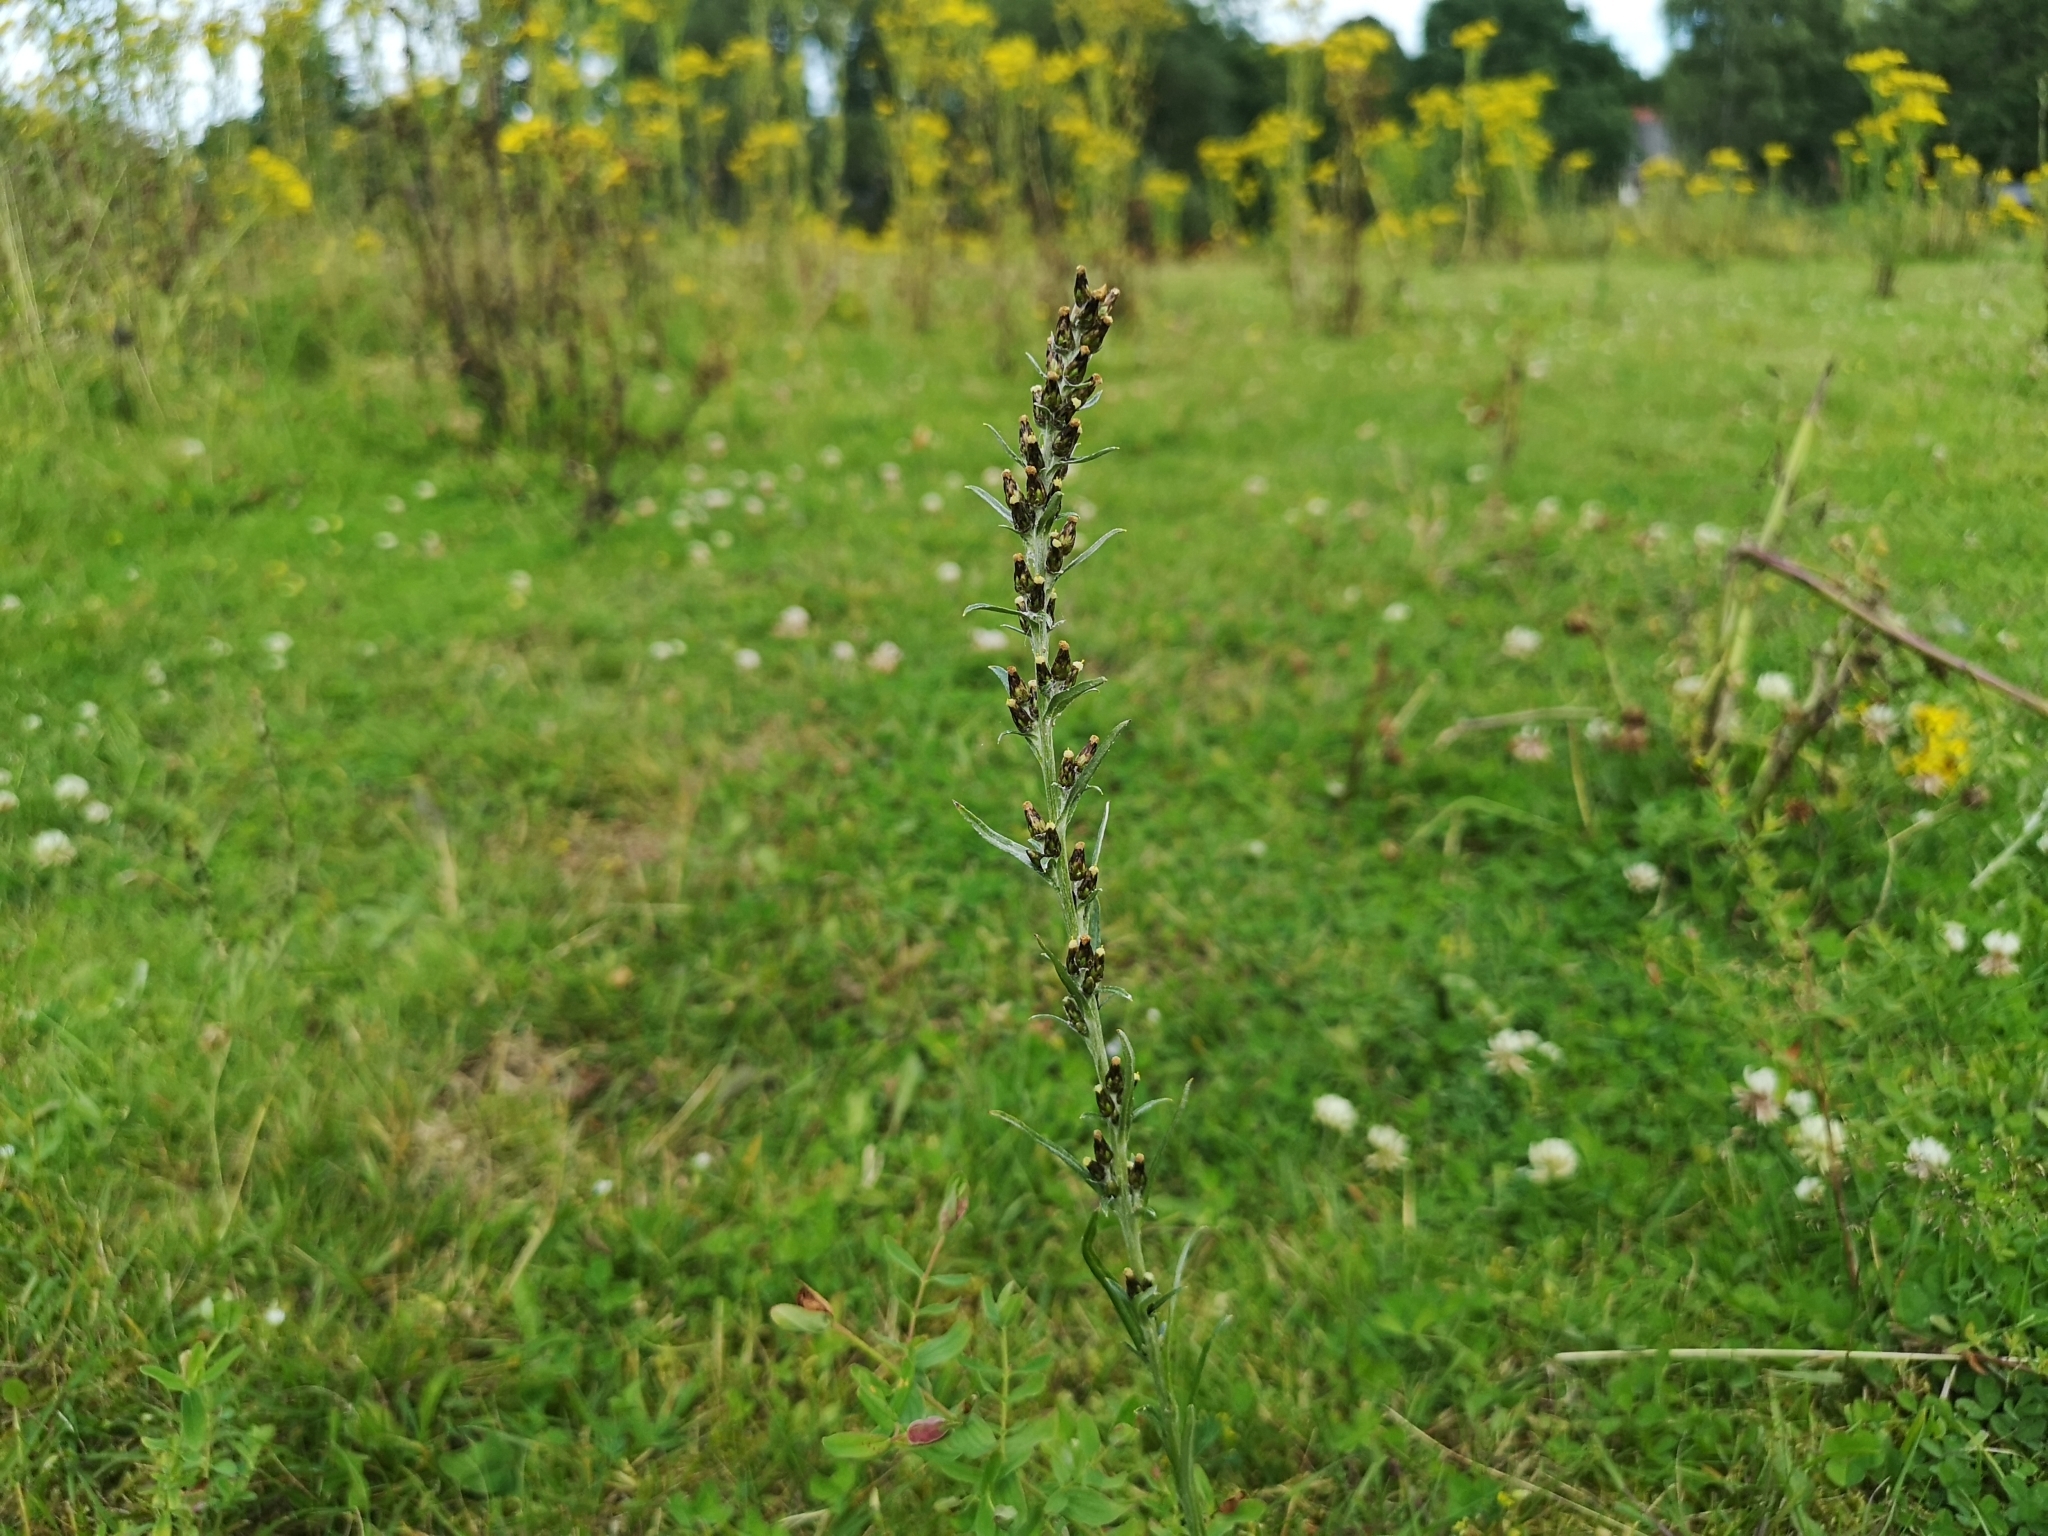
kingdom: Plantae
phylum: Tracheophyta
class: Magnoliopsida
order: Asterales
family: Asteraceae
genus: Omalotheca
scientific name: Omalotheca sylvatica
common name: Heath cudweed
